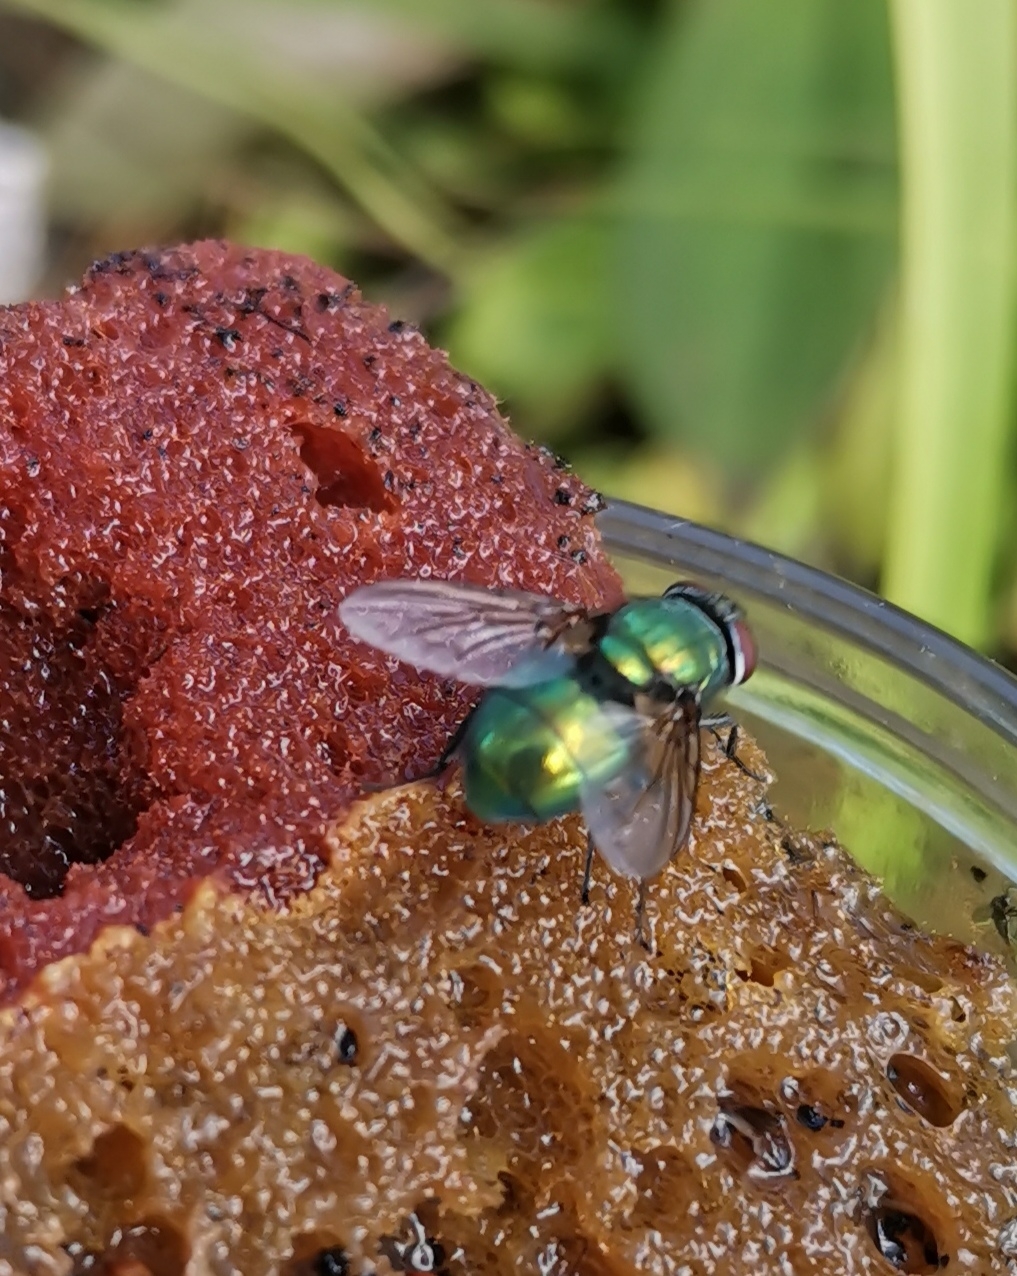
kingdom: Animalia
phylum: Arthropoda
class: Insecta
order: Diptera
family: Calliphoridae
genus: Lucilia
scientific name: Lucilia sericata
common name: Blow fly
